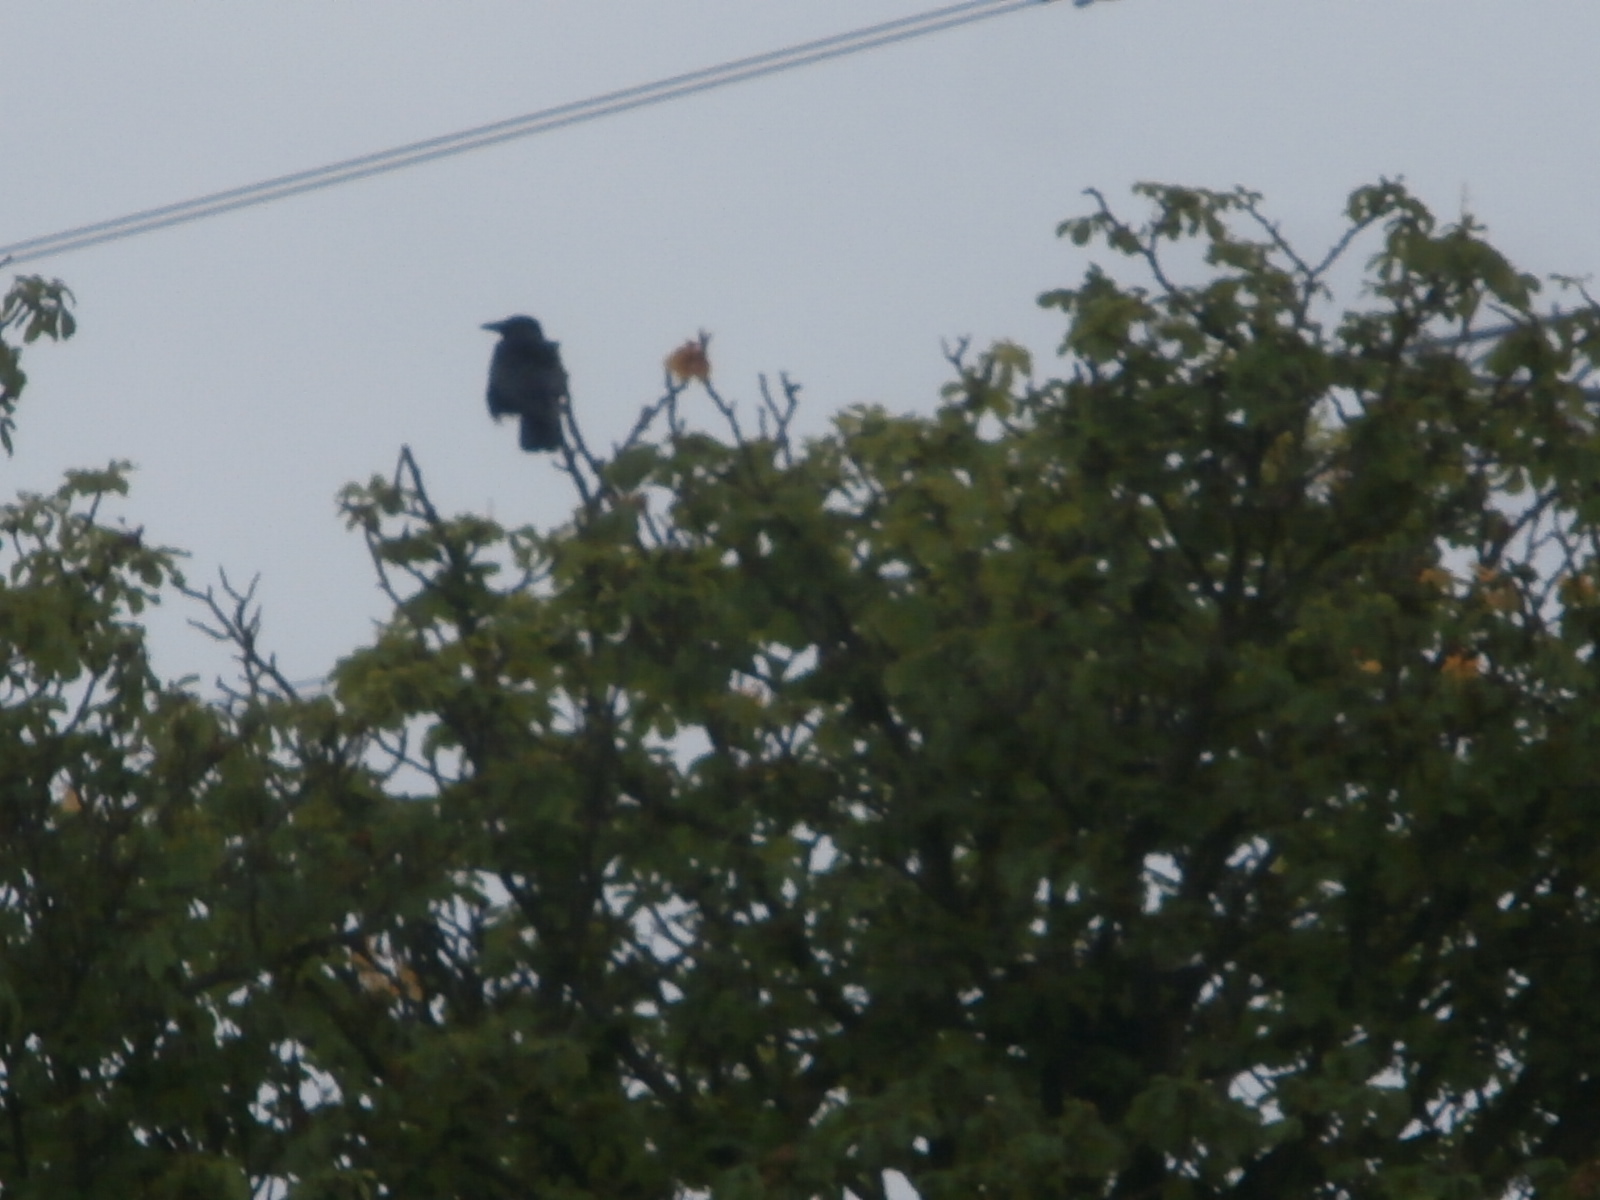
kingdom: Animalia
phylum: Chordata
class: Aves
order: Passeriformes
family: Corvidae
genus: Corvus
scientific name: Corvus corone
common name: Carrion crow
